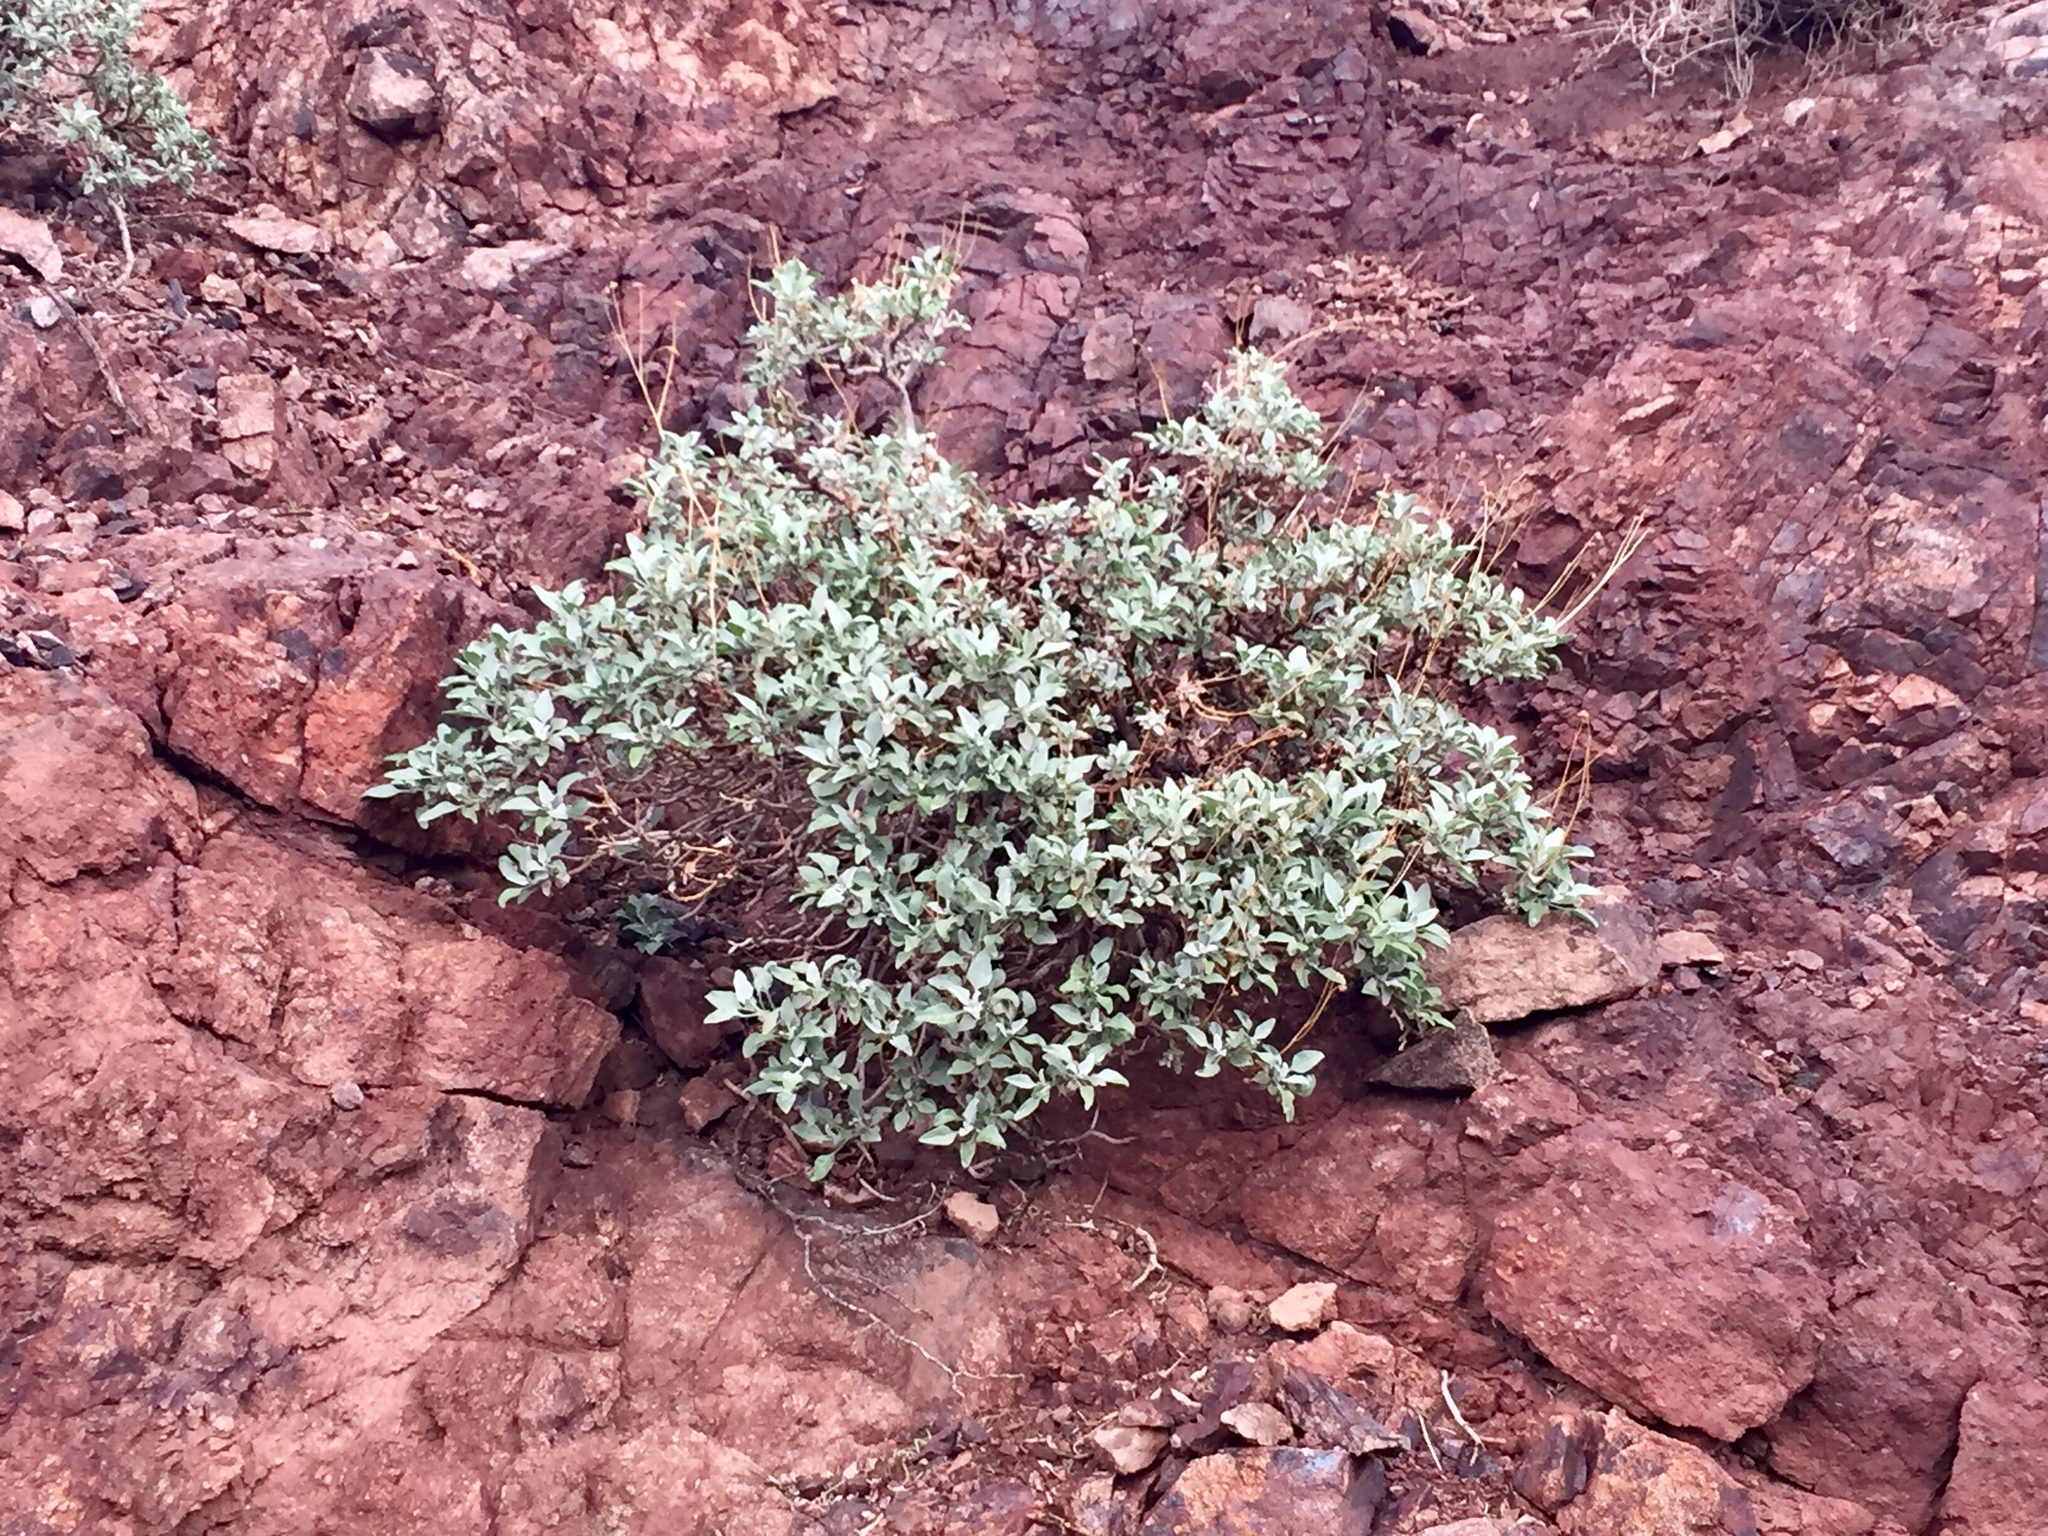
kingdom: Plantae
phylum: Tracheophyta
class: Magnoliopsida
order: Asterales
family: Asteraceae
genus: Encelia
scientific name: Encelia farinosa
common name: Brittlebush
